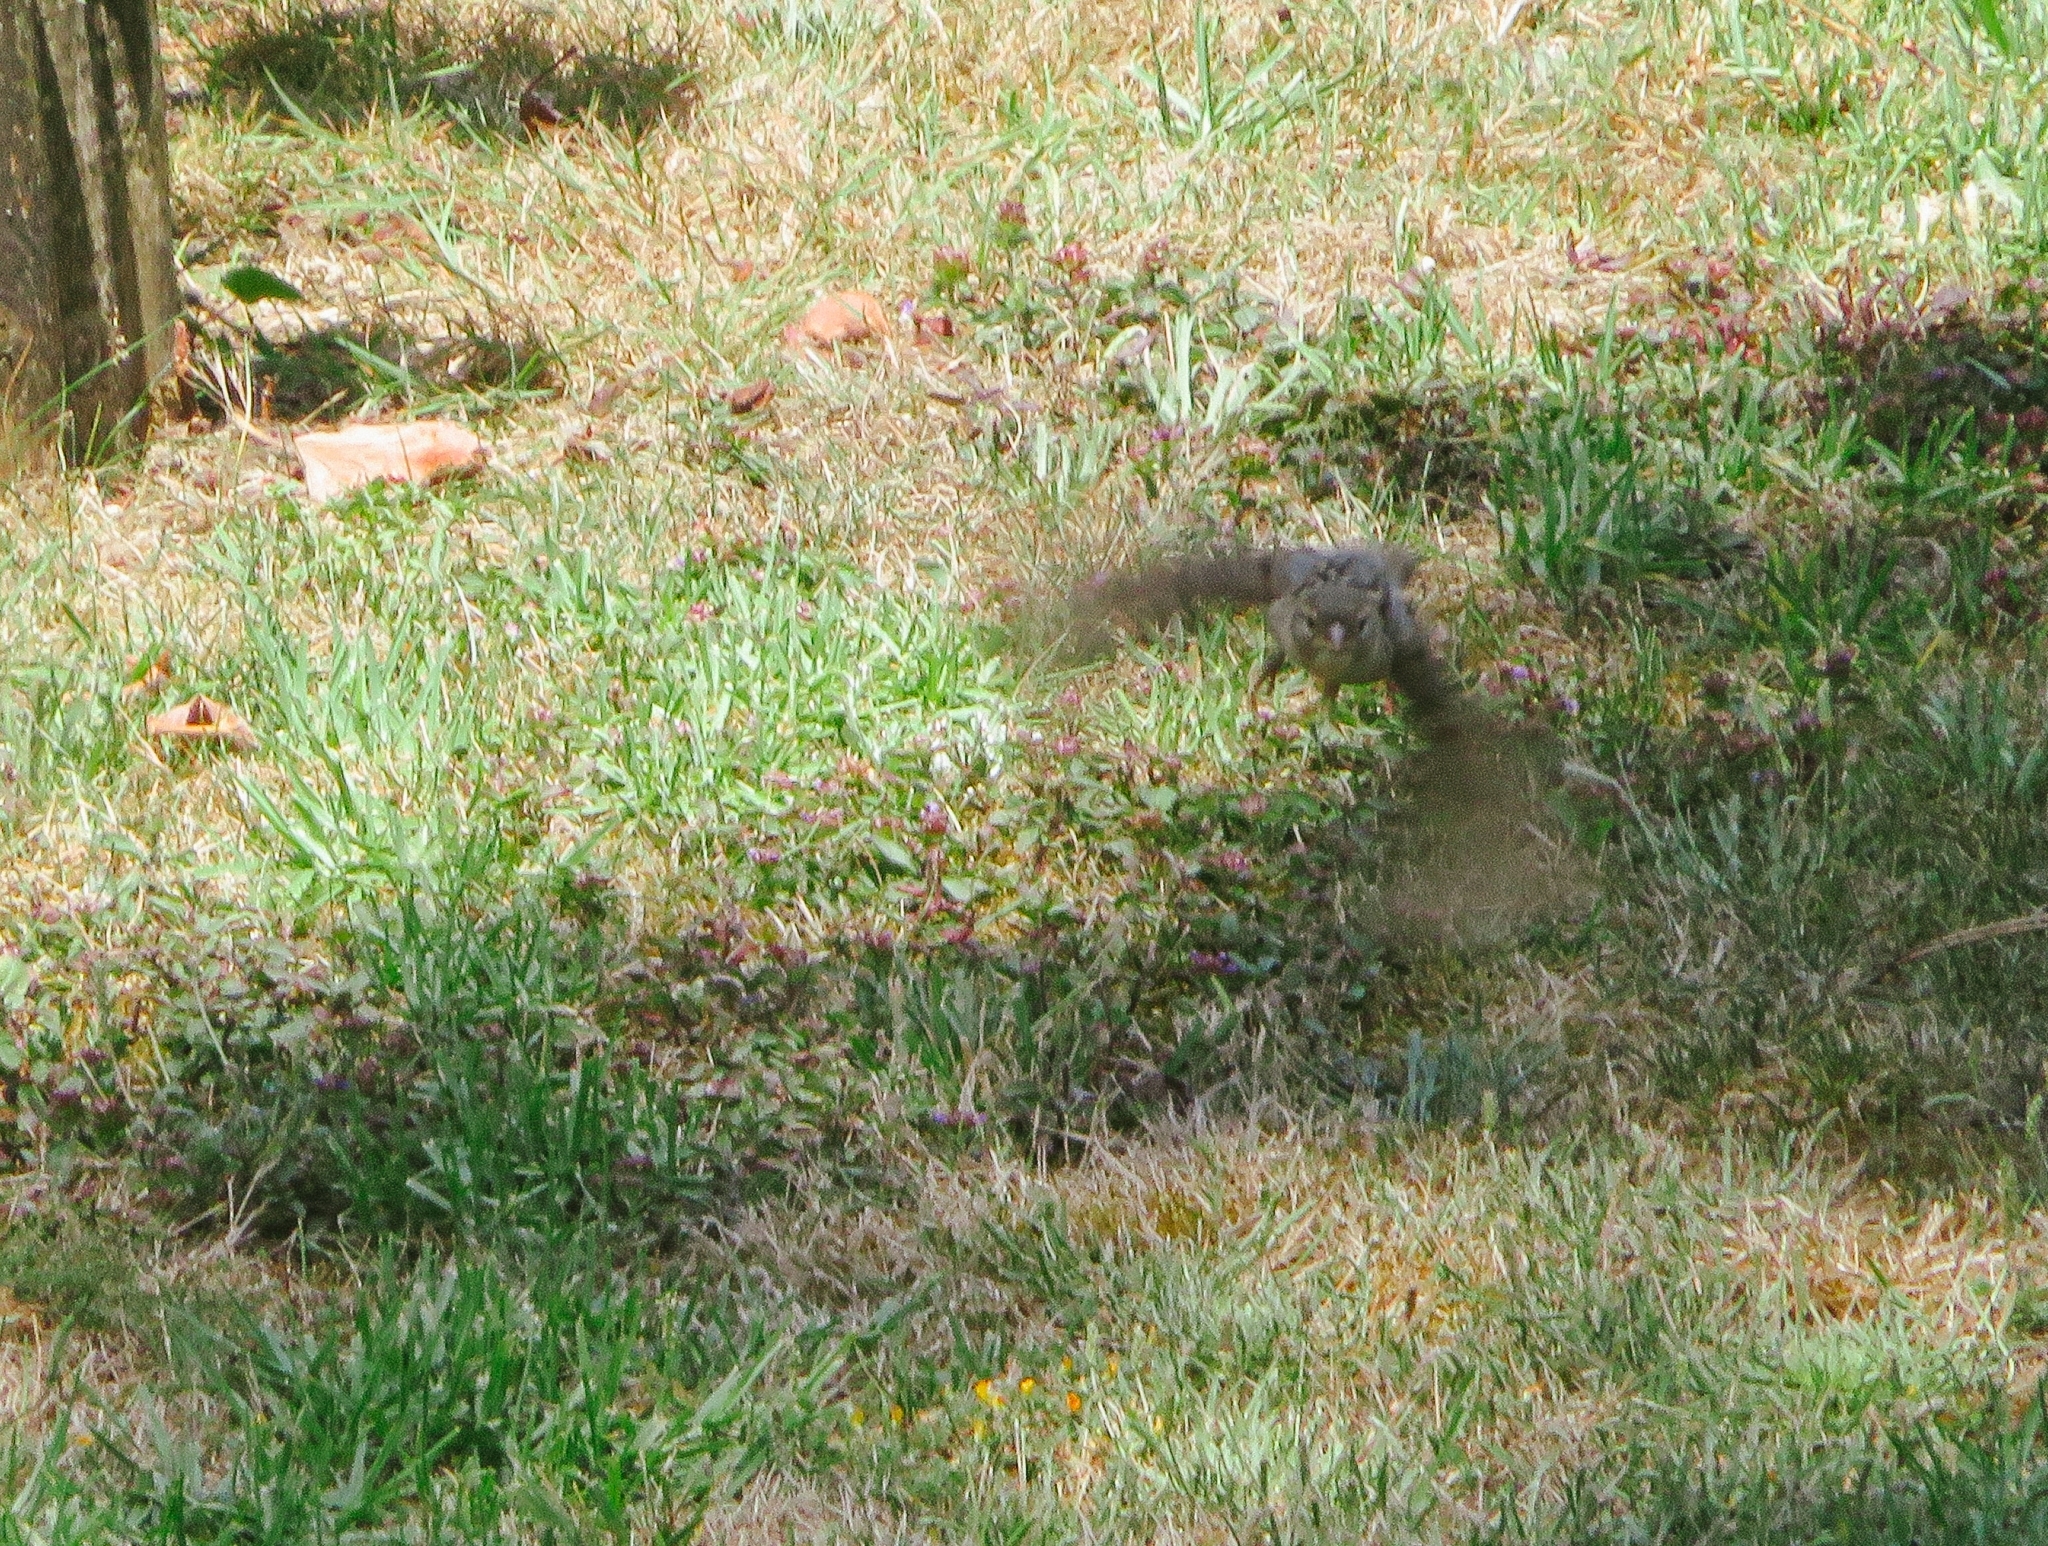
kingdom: Animalia
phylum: Chordata
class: Aves
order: Passeriformes
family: Passeridae
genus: Passer
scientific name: Passer domesticus
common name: House sparrow
